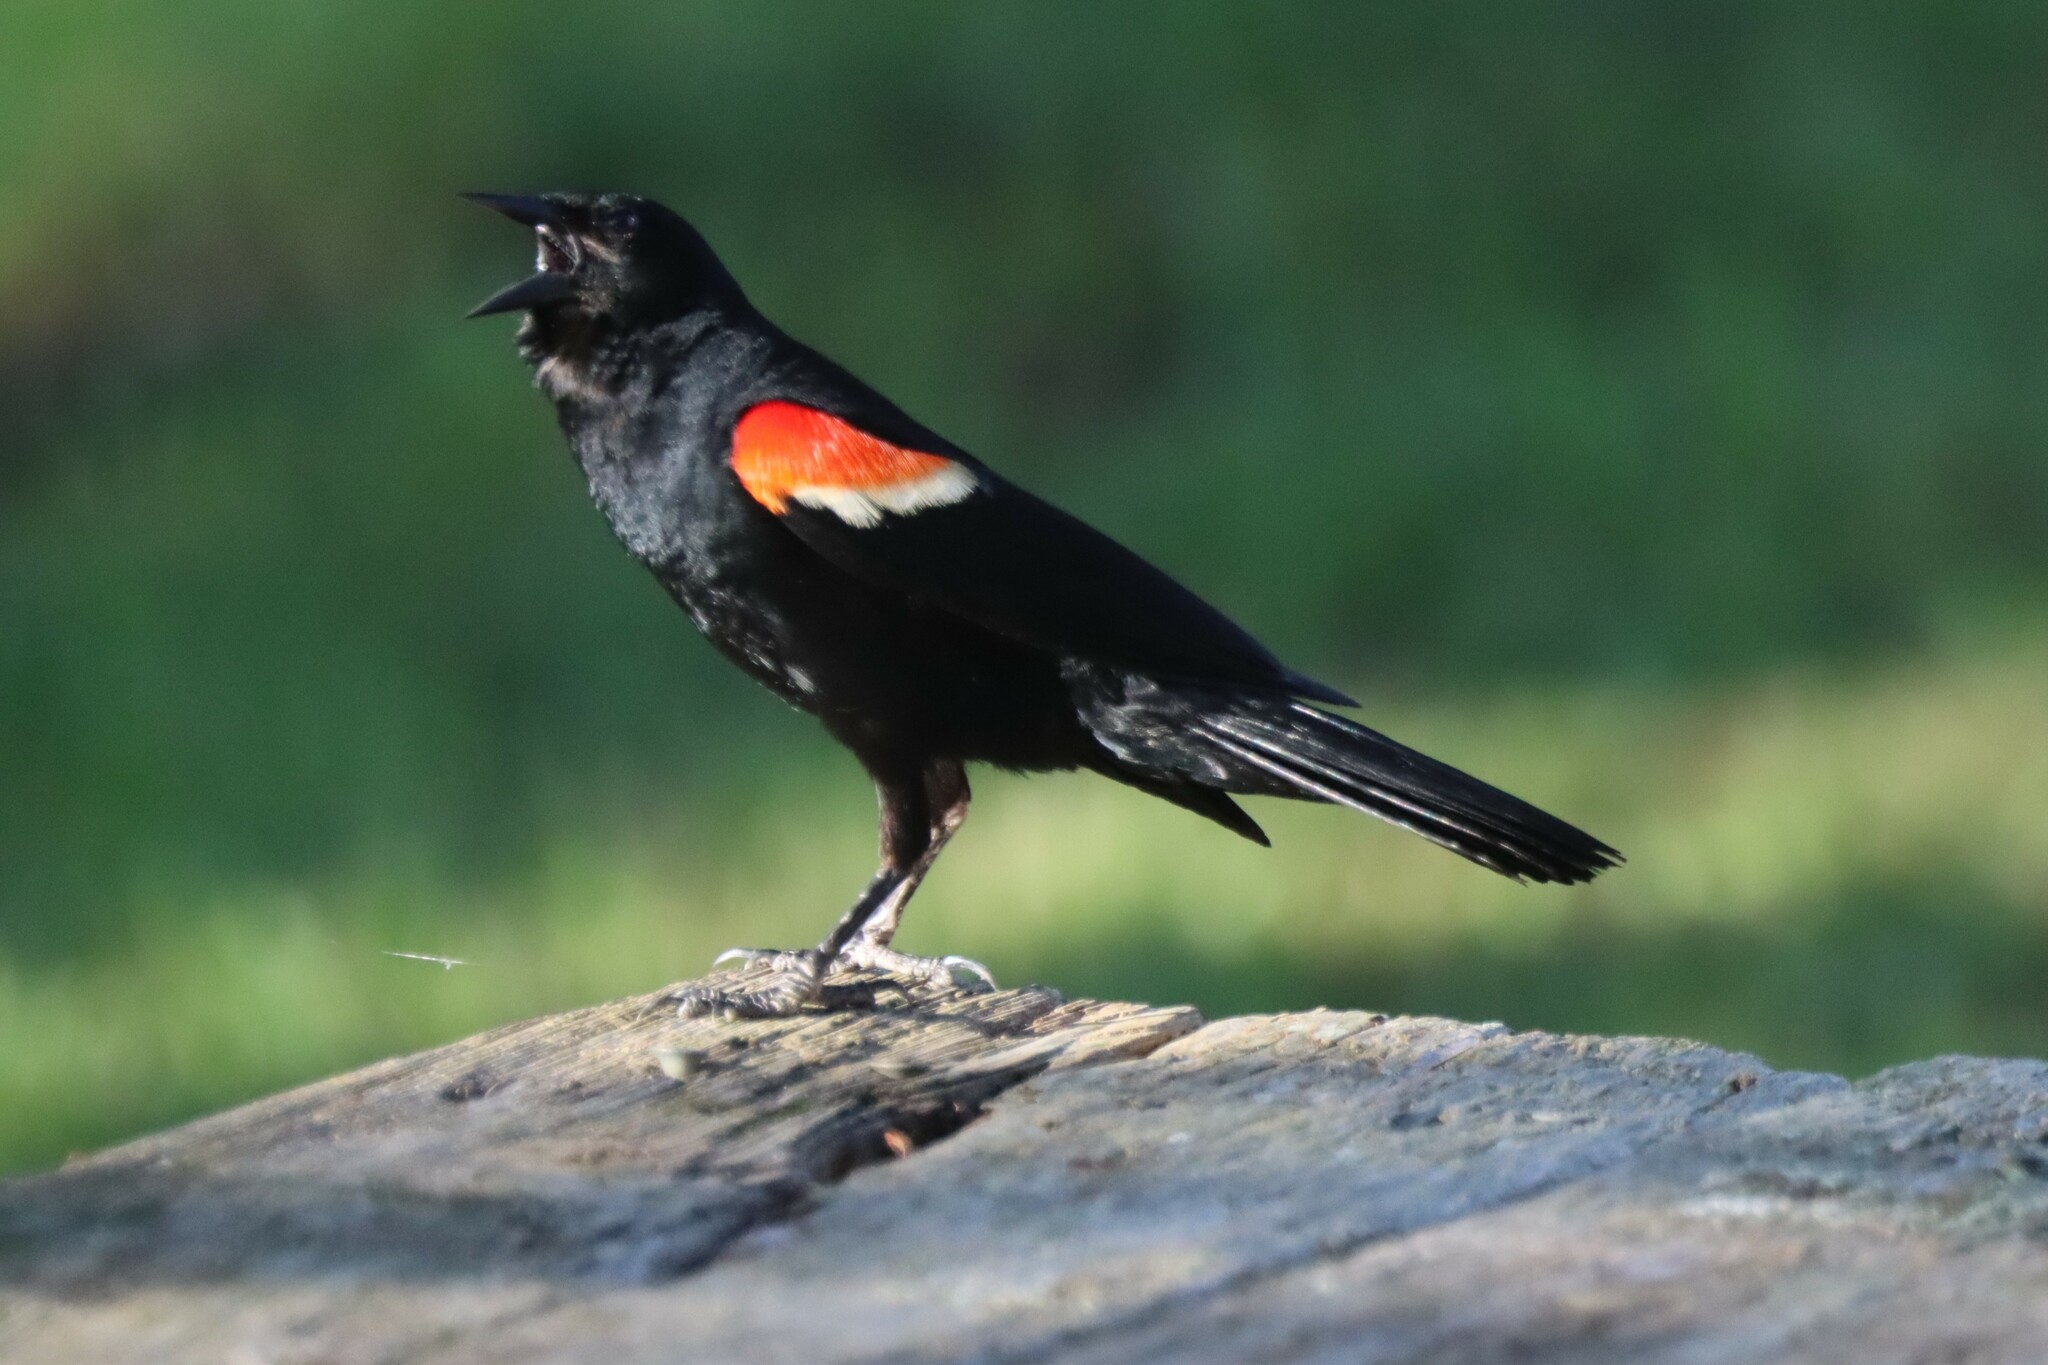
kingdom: Animalia
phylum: Chordata
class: Aves
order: Passeriformes
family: Icteridae
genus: Agelaius
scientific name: Agelaius phoeniceus
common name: Red-winged blackbird
